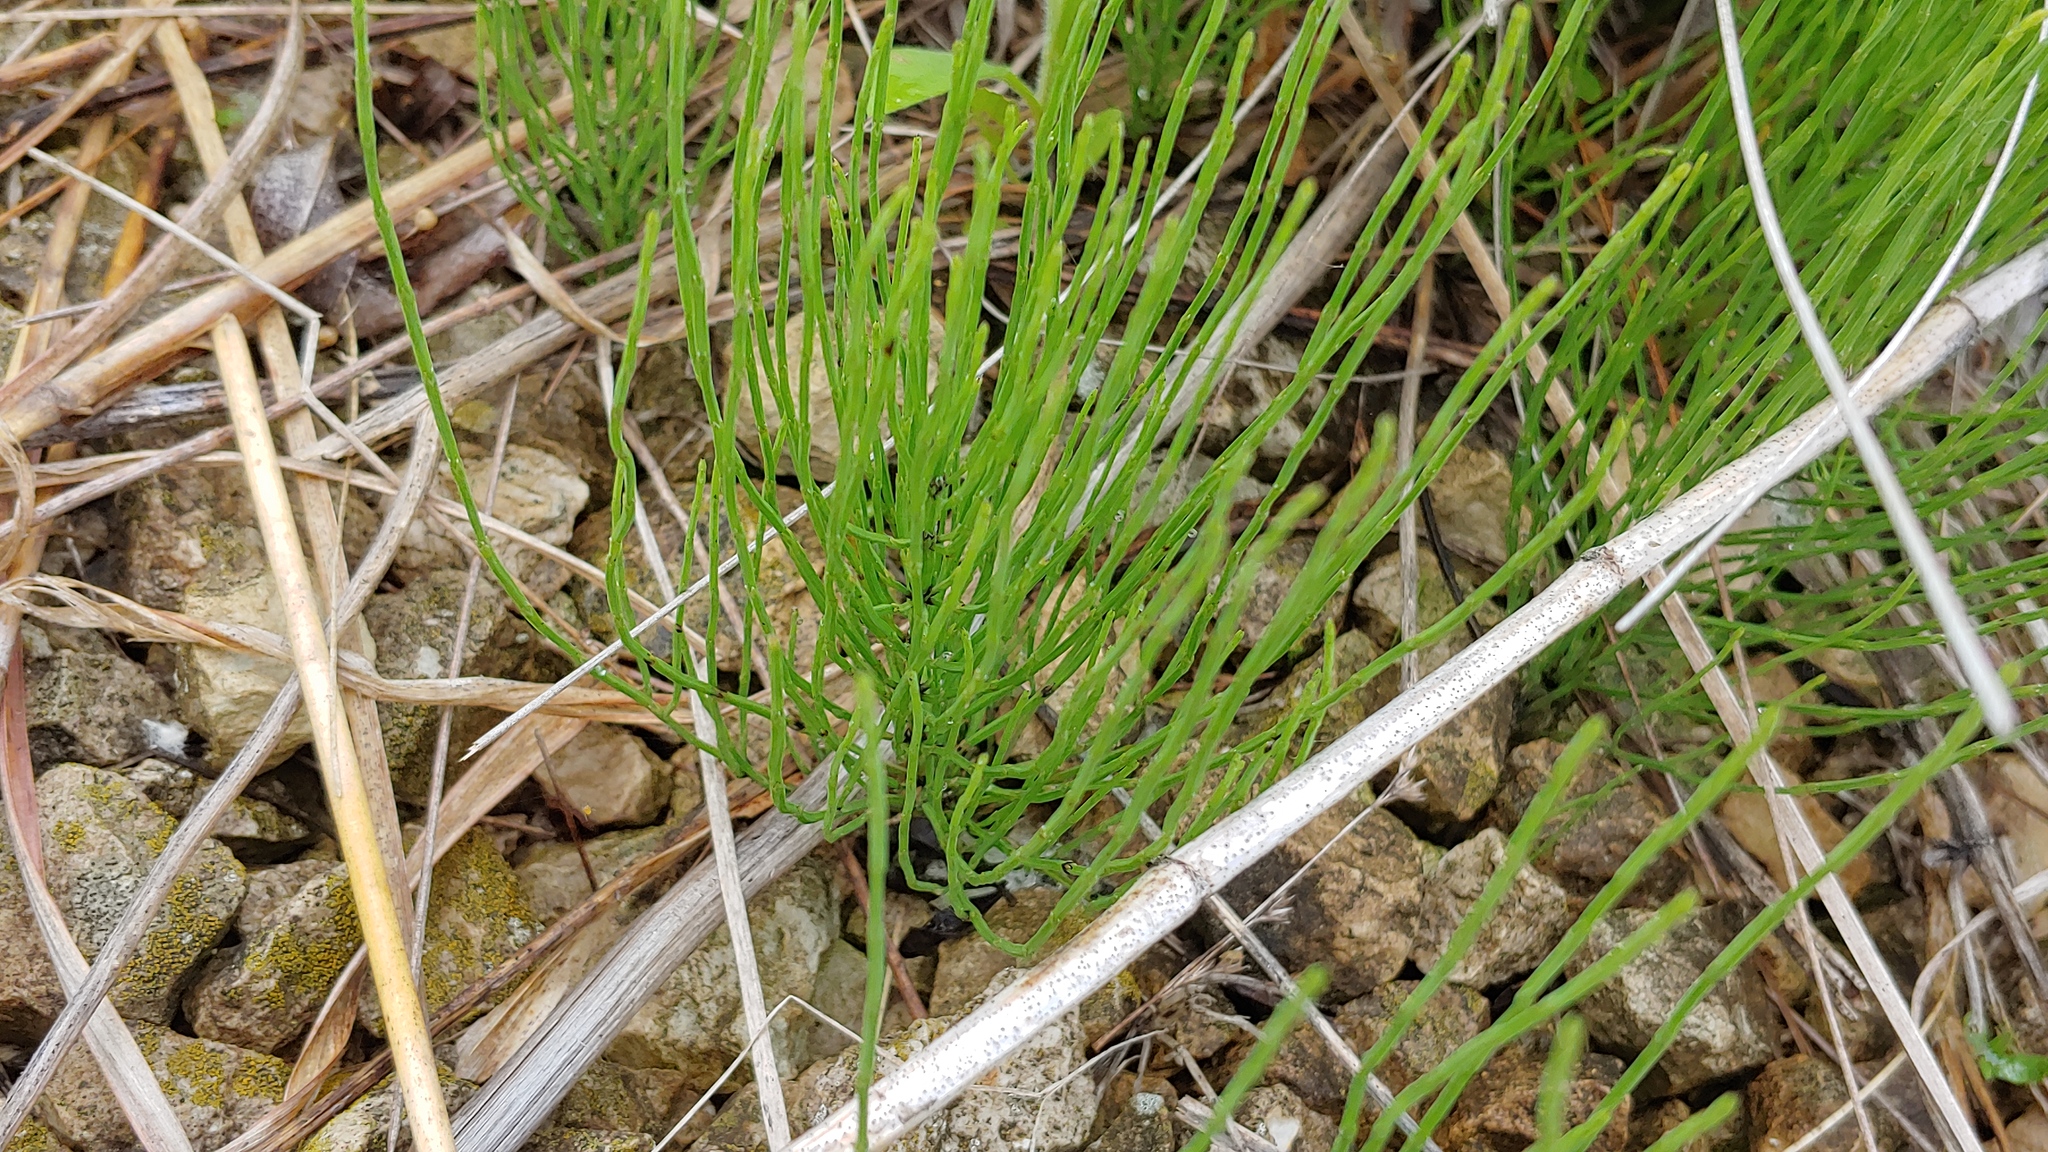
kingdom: Plantae
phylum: Tracheophyta
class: Polypodiopsida
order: Equisetales
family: Equisetaceae
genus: Equisetum
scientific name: Equisetum arvense
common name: Field horsetail
